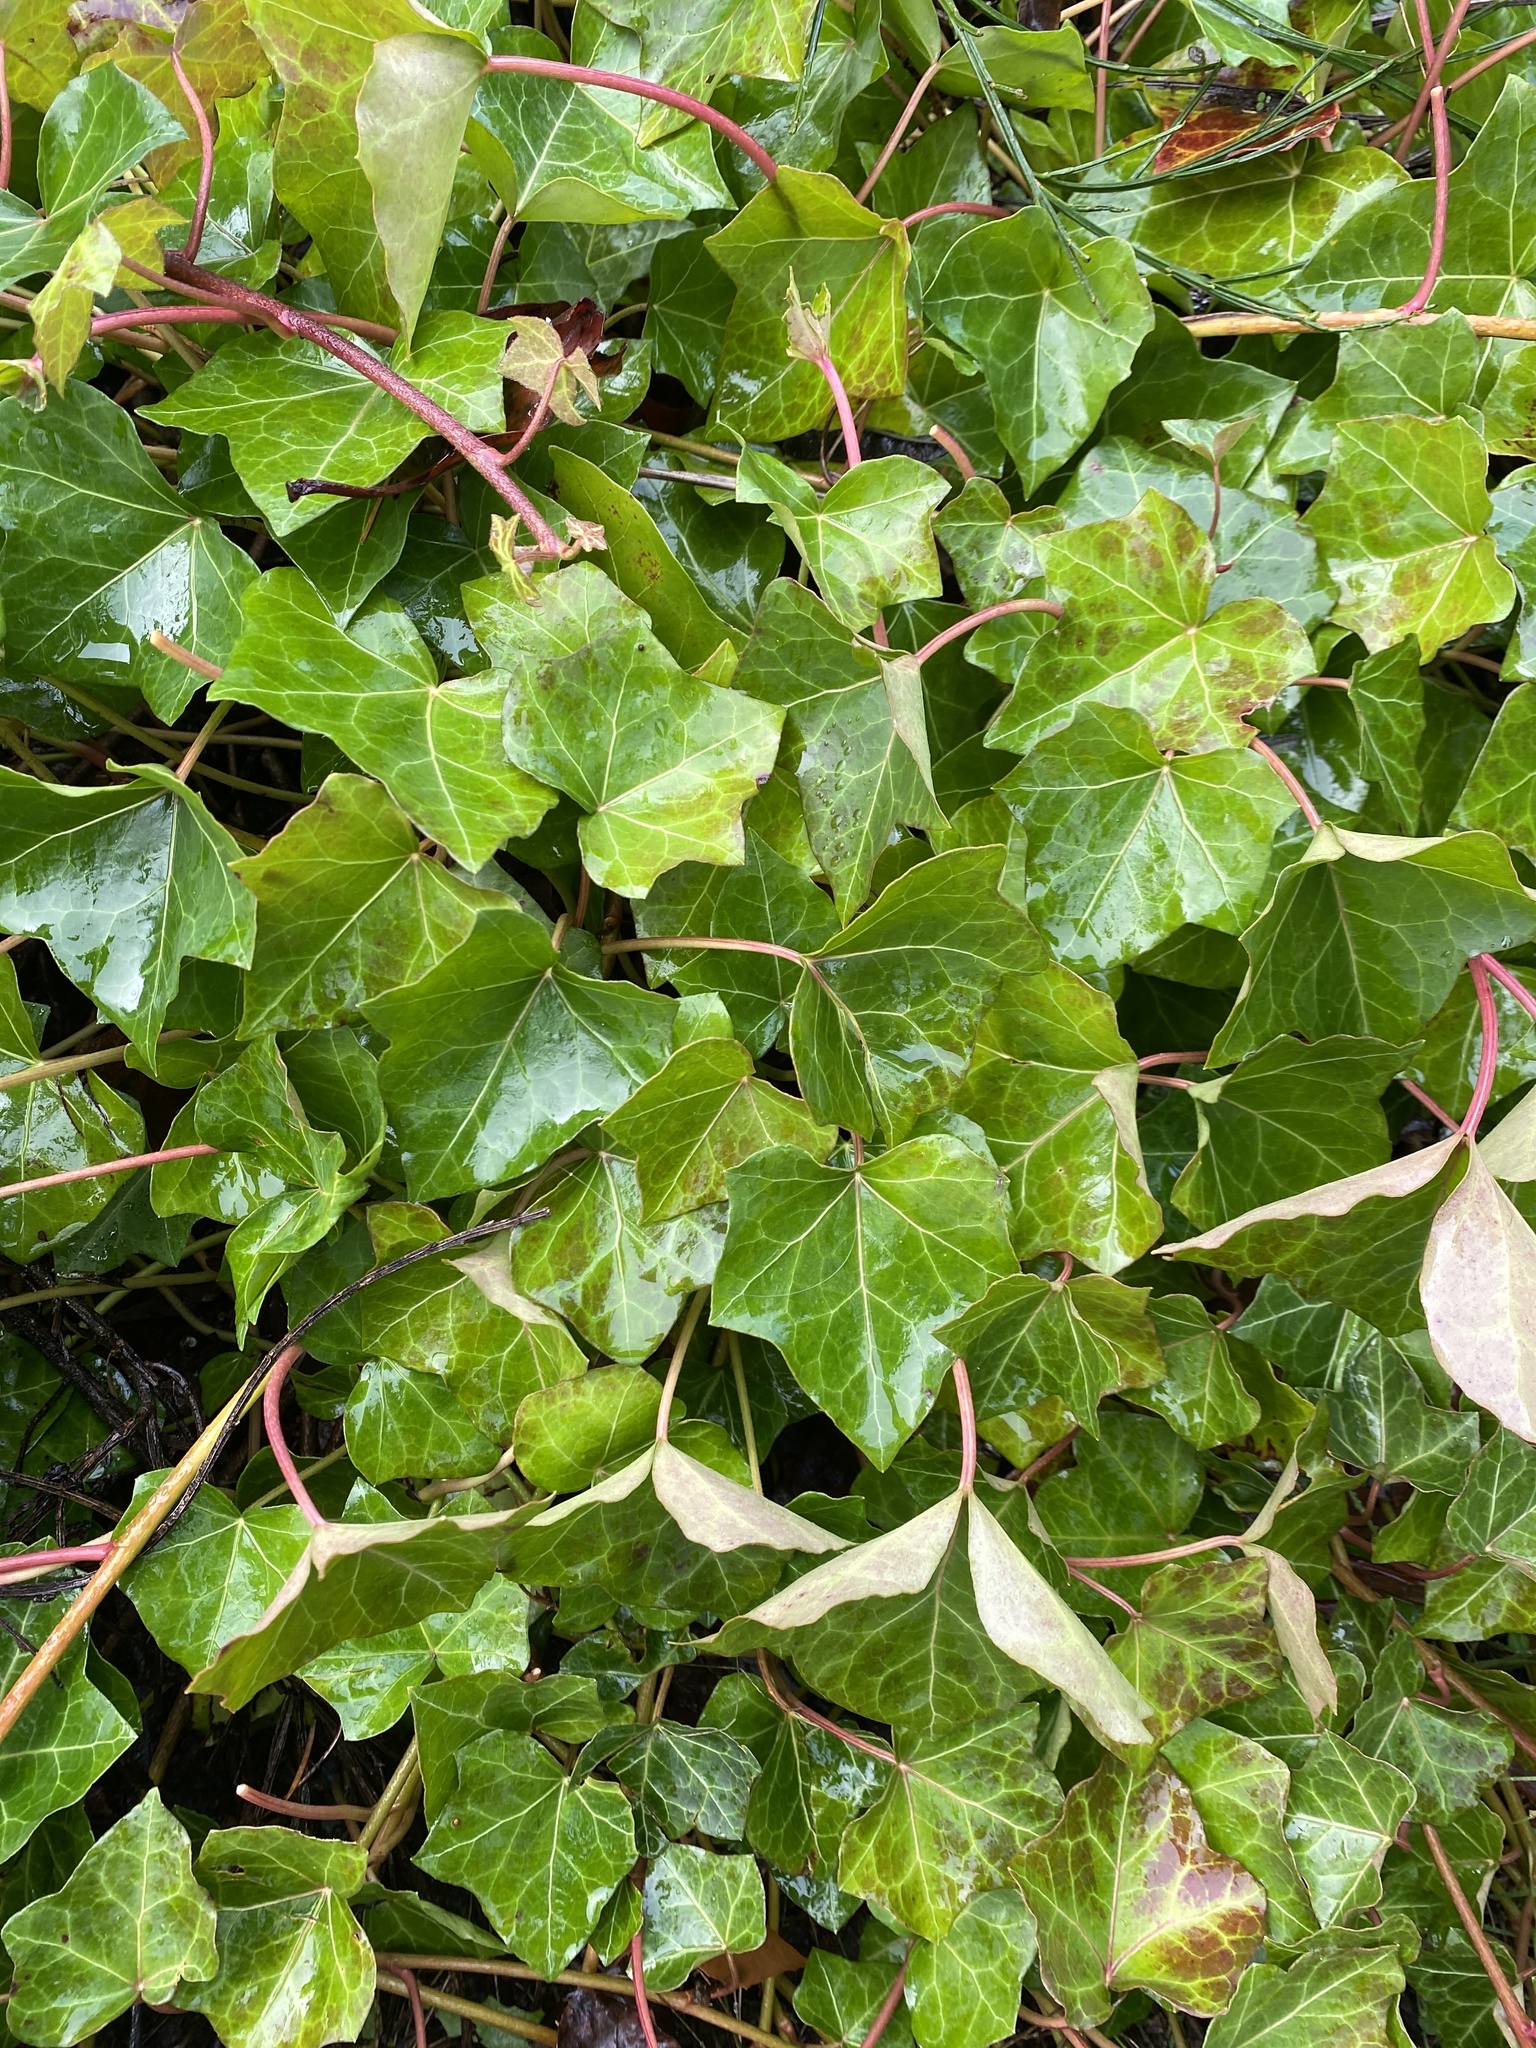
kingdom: Plantae
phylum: Tracheophyta
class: Magnoliopsida
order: Apiales
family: Araliaceae
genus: Hedera
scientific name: Hedera helix
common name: Ivy
